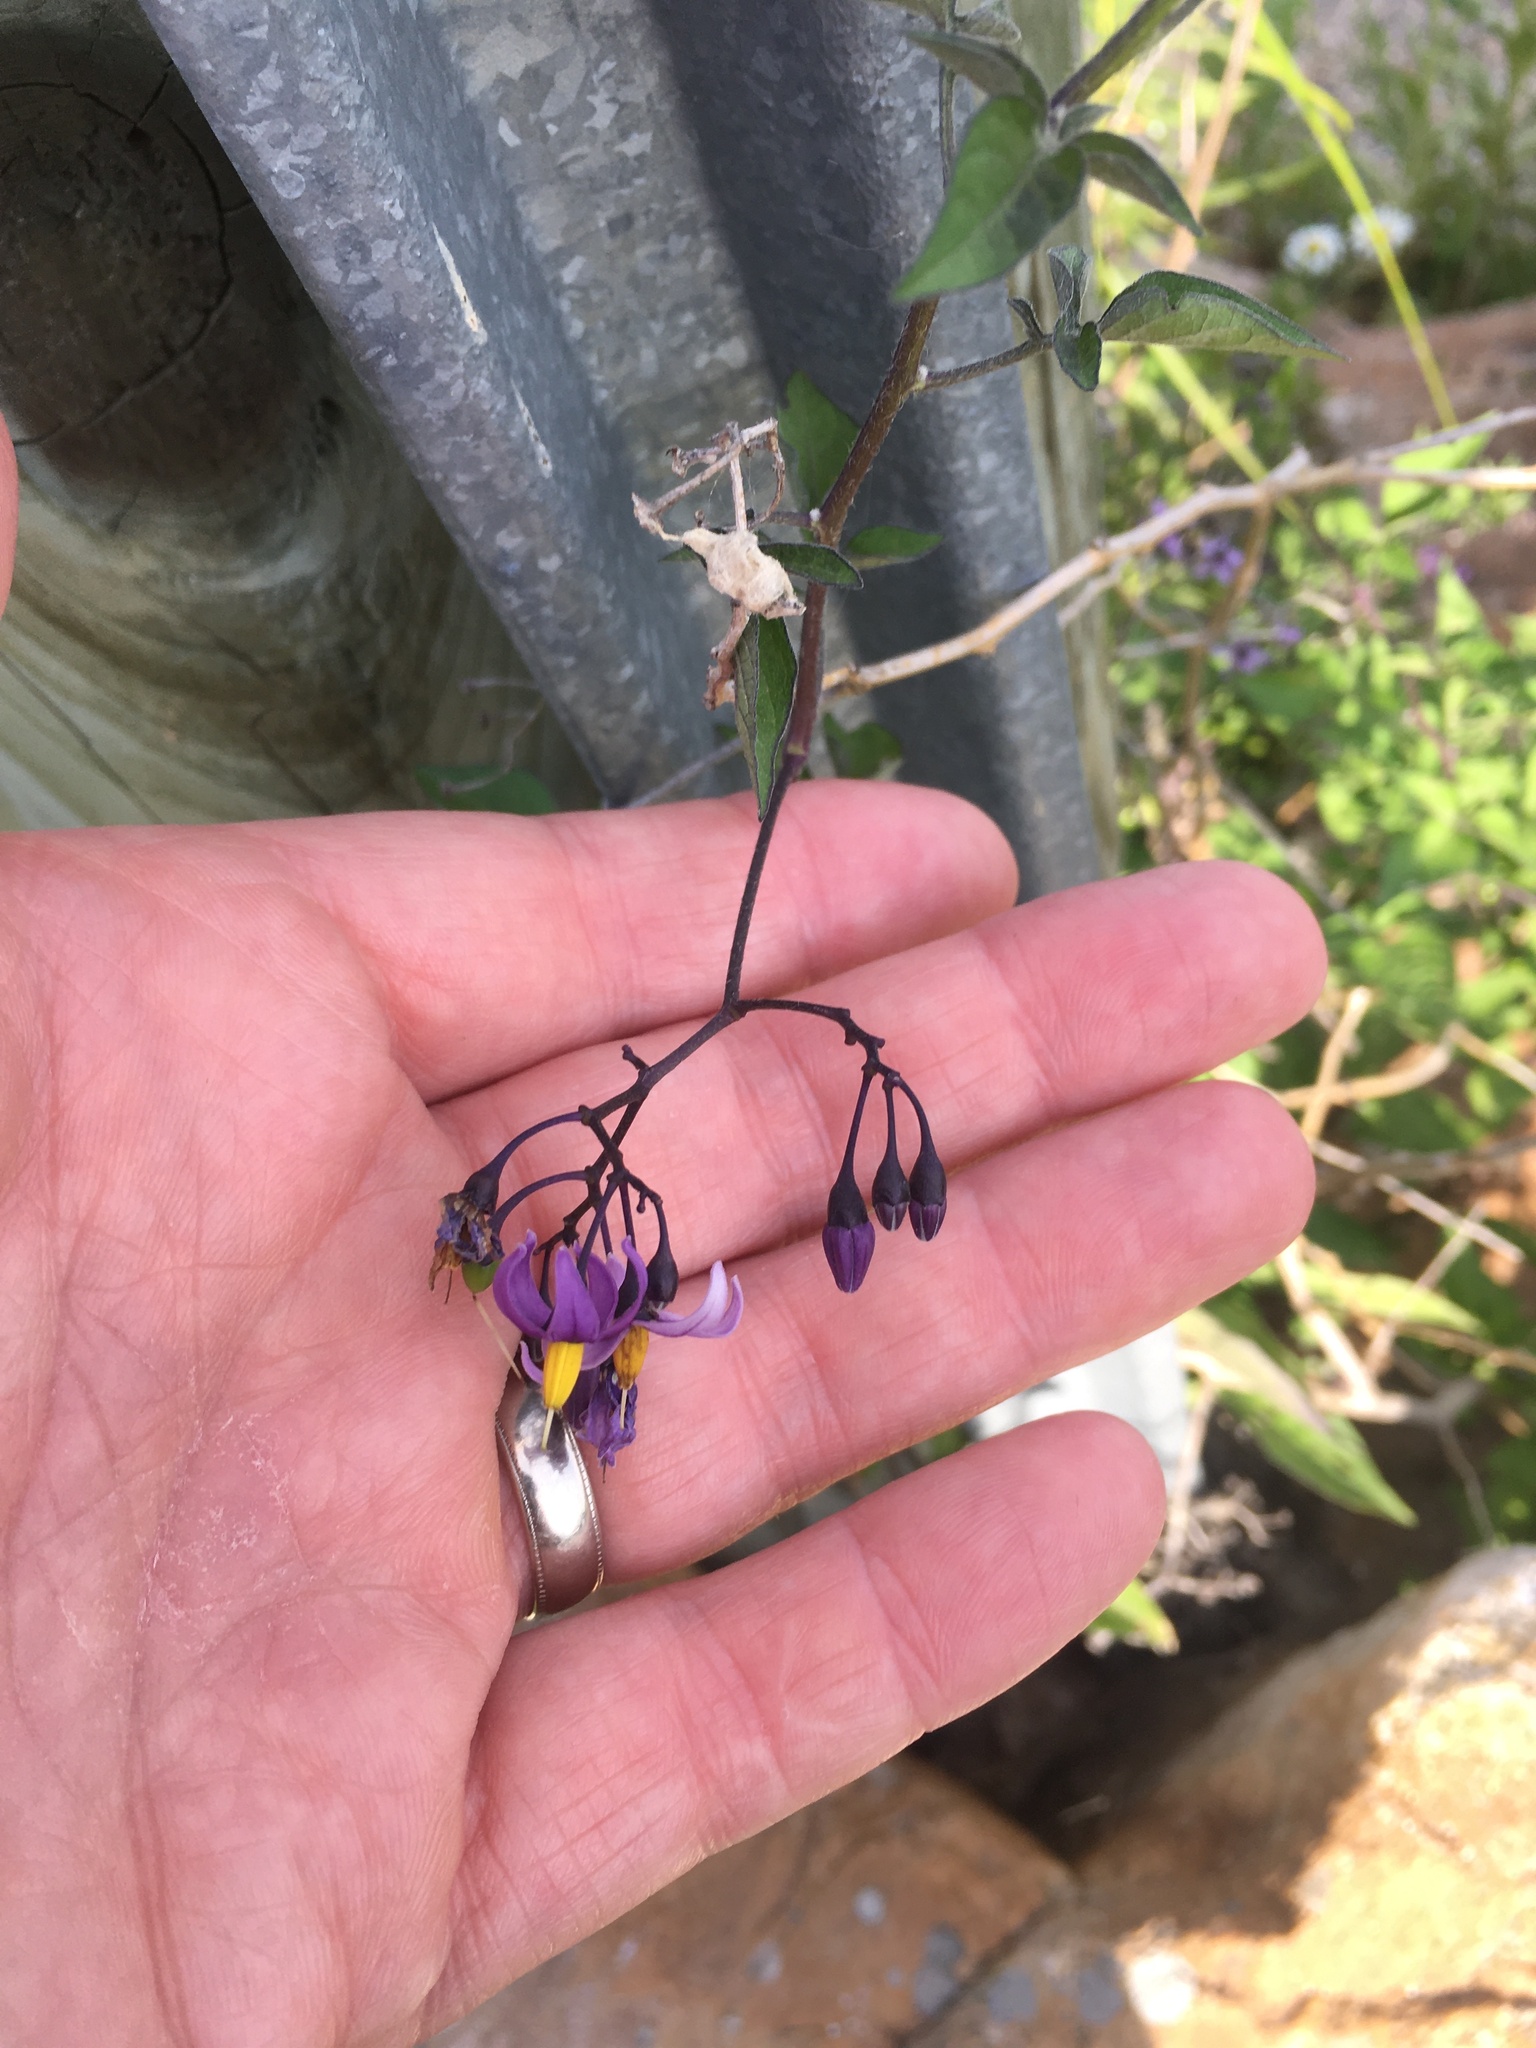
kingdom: Plantae
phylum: Tracheophyta
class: Magnoliopsida
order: Solanales
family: Solanaceae
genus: Solanum
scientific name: Solanum dulcamara
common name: Climbing nightshade
